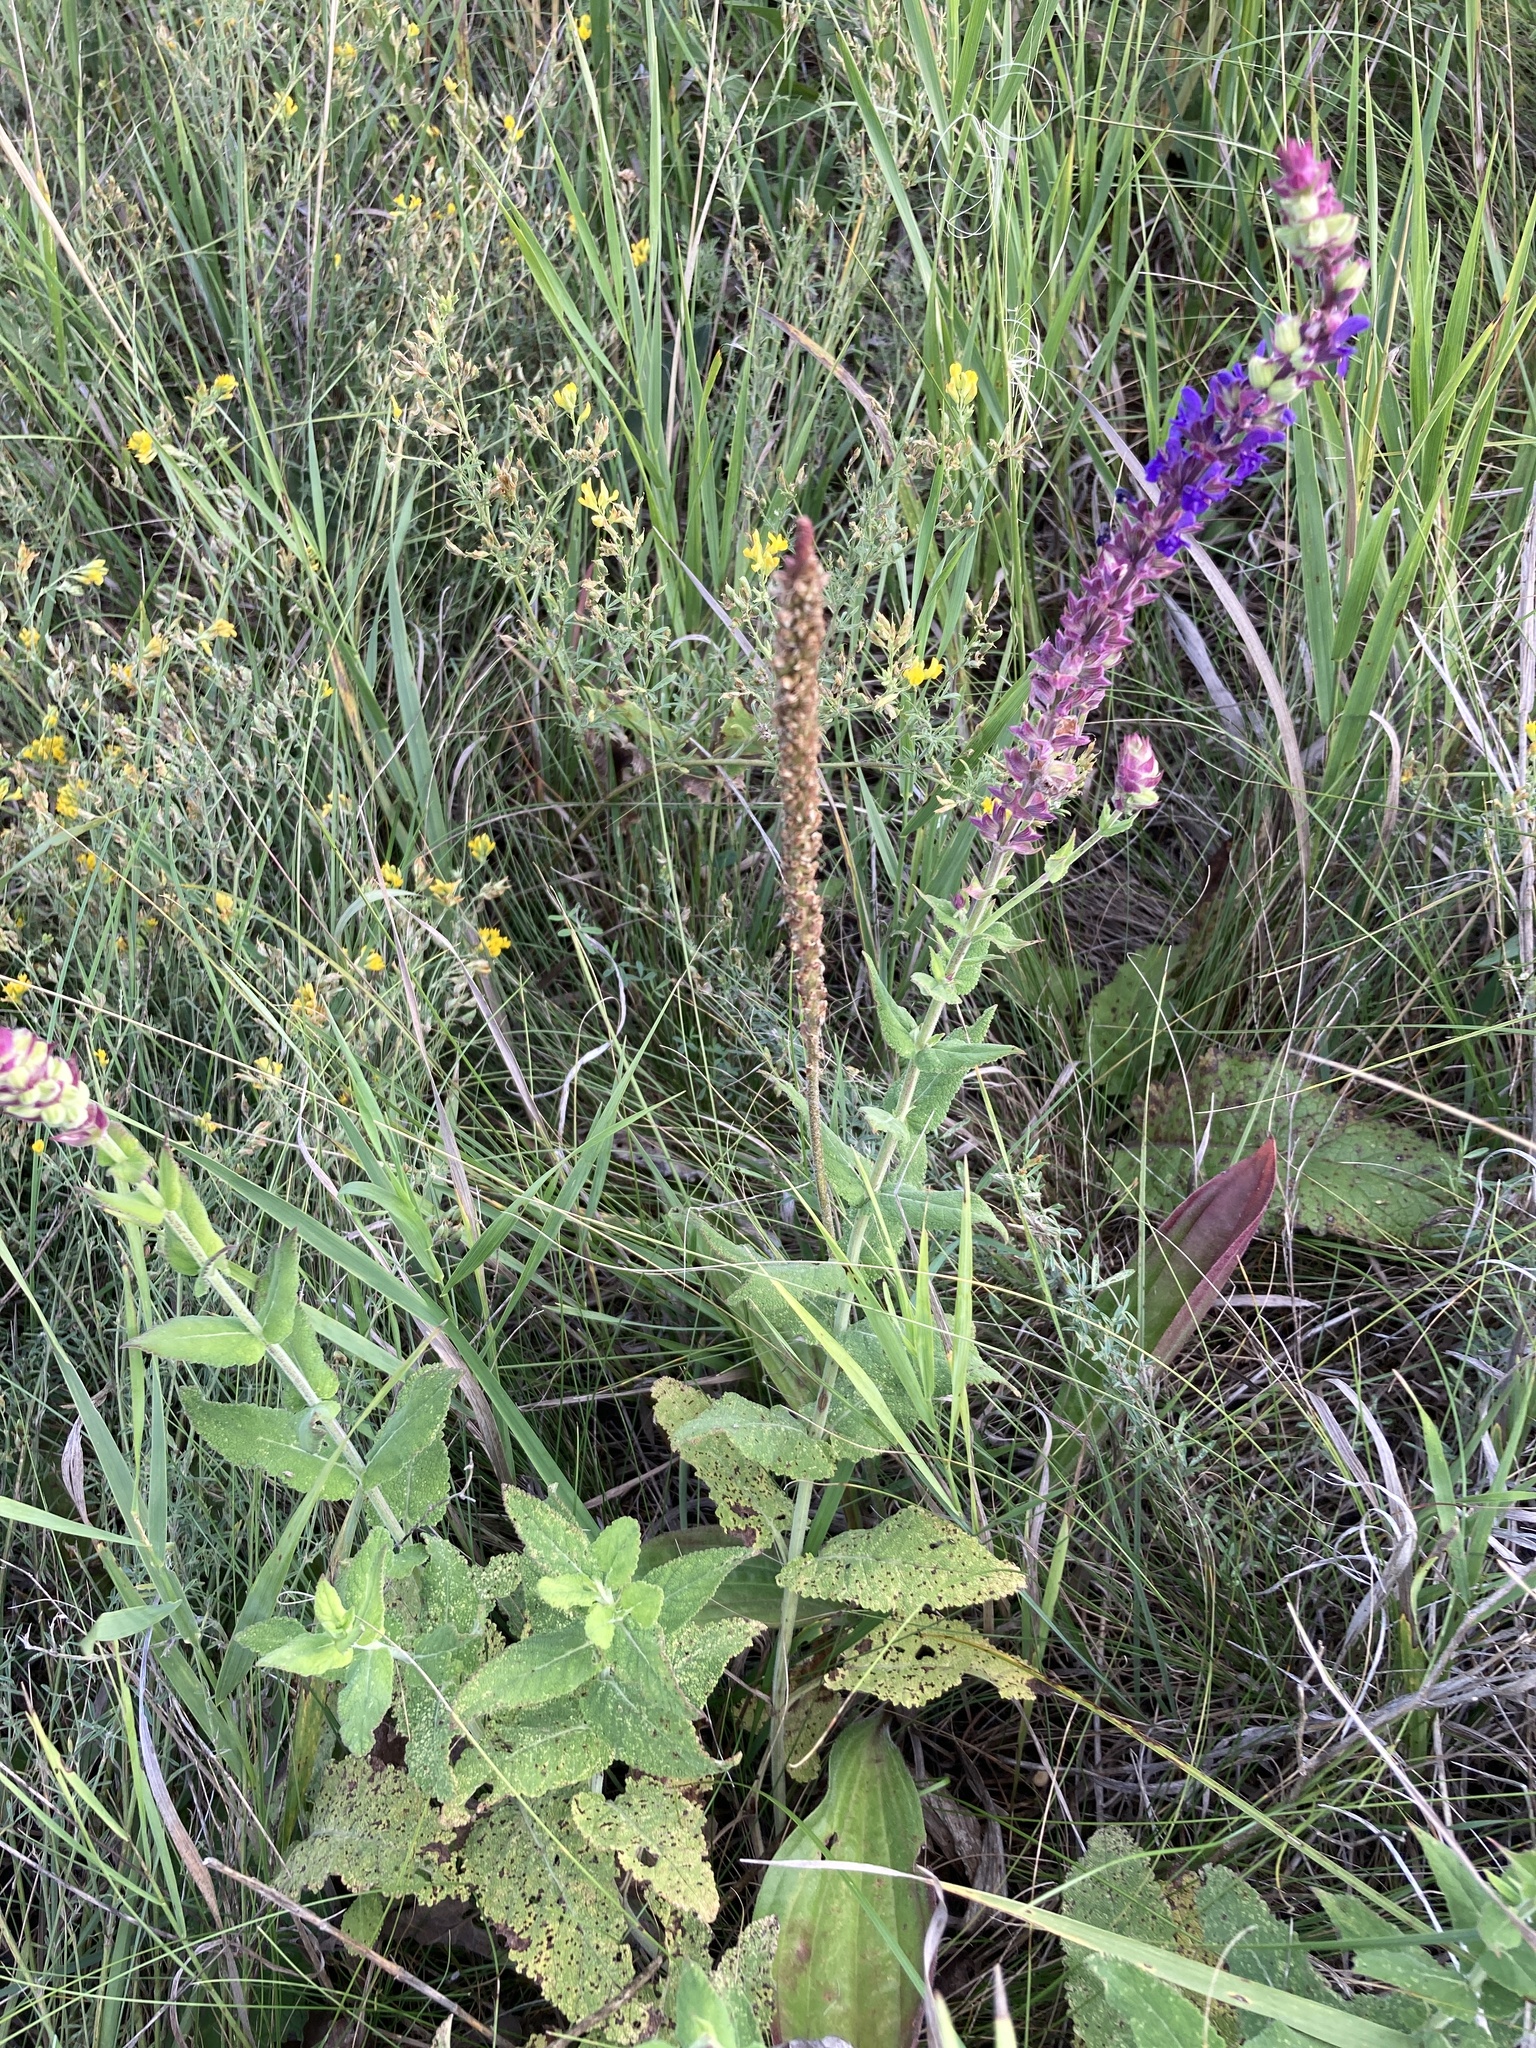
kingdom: Plantae
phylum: Tracheophyta
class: Magnoliopsida
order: Lamiales
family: Lamiaceae
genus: Salvia
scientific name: Salvia nemorosa
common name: Balkan clary
